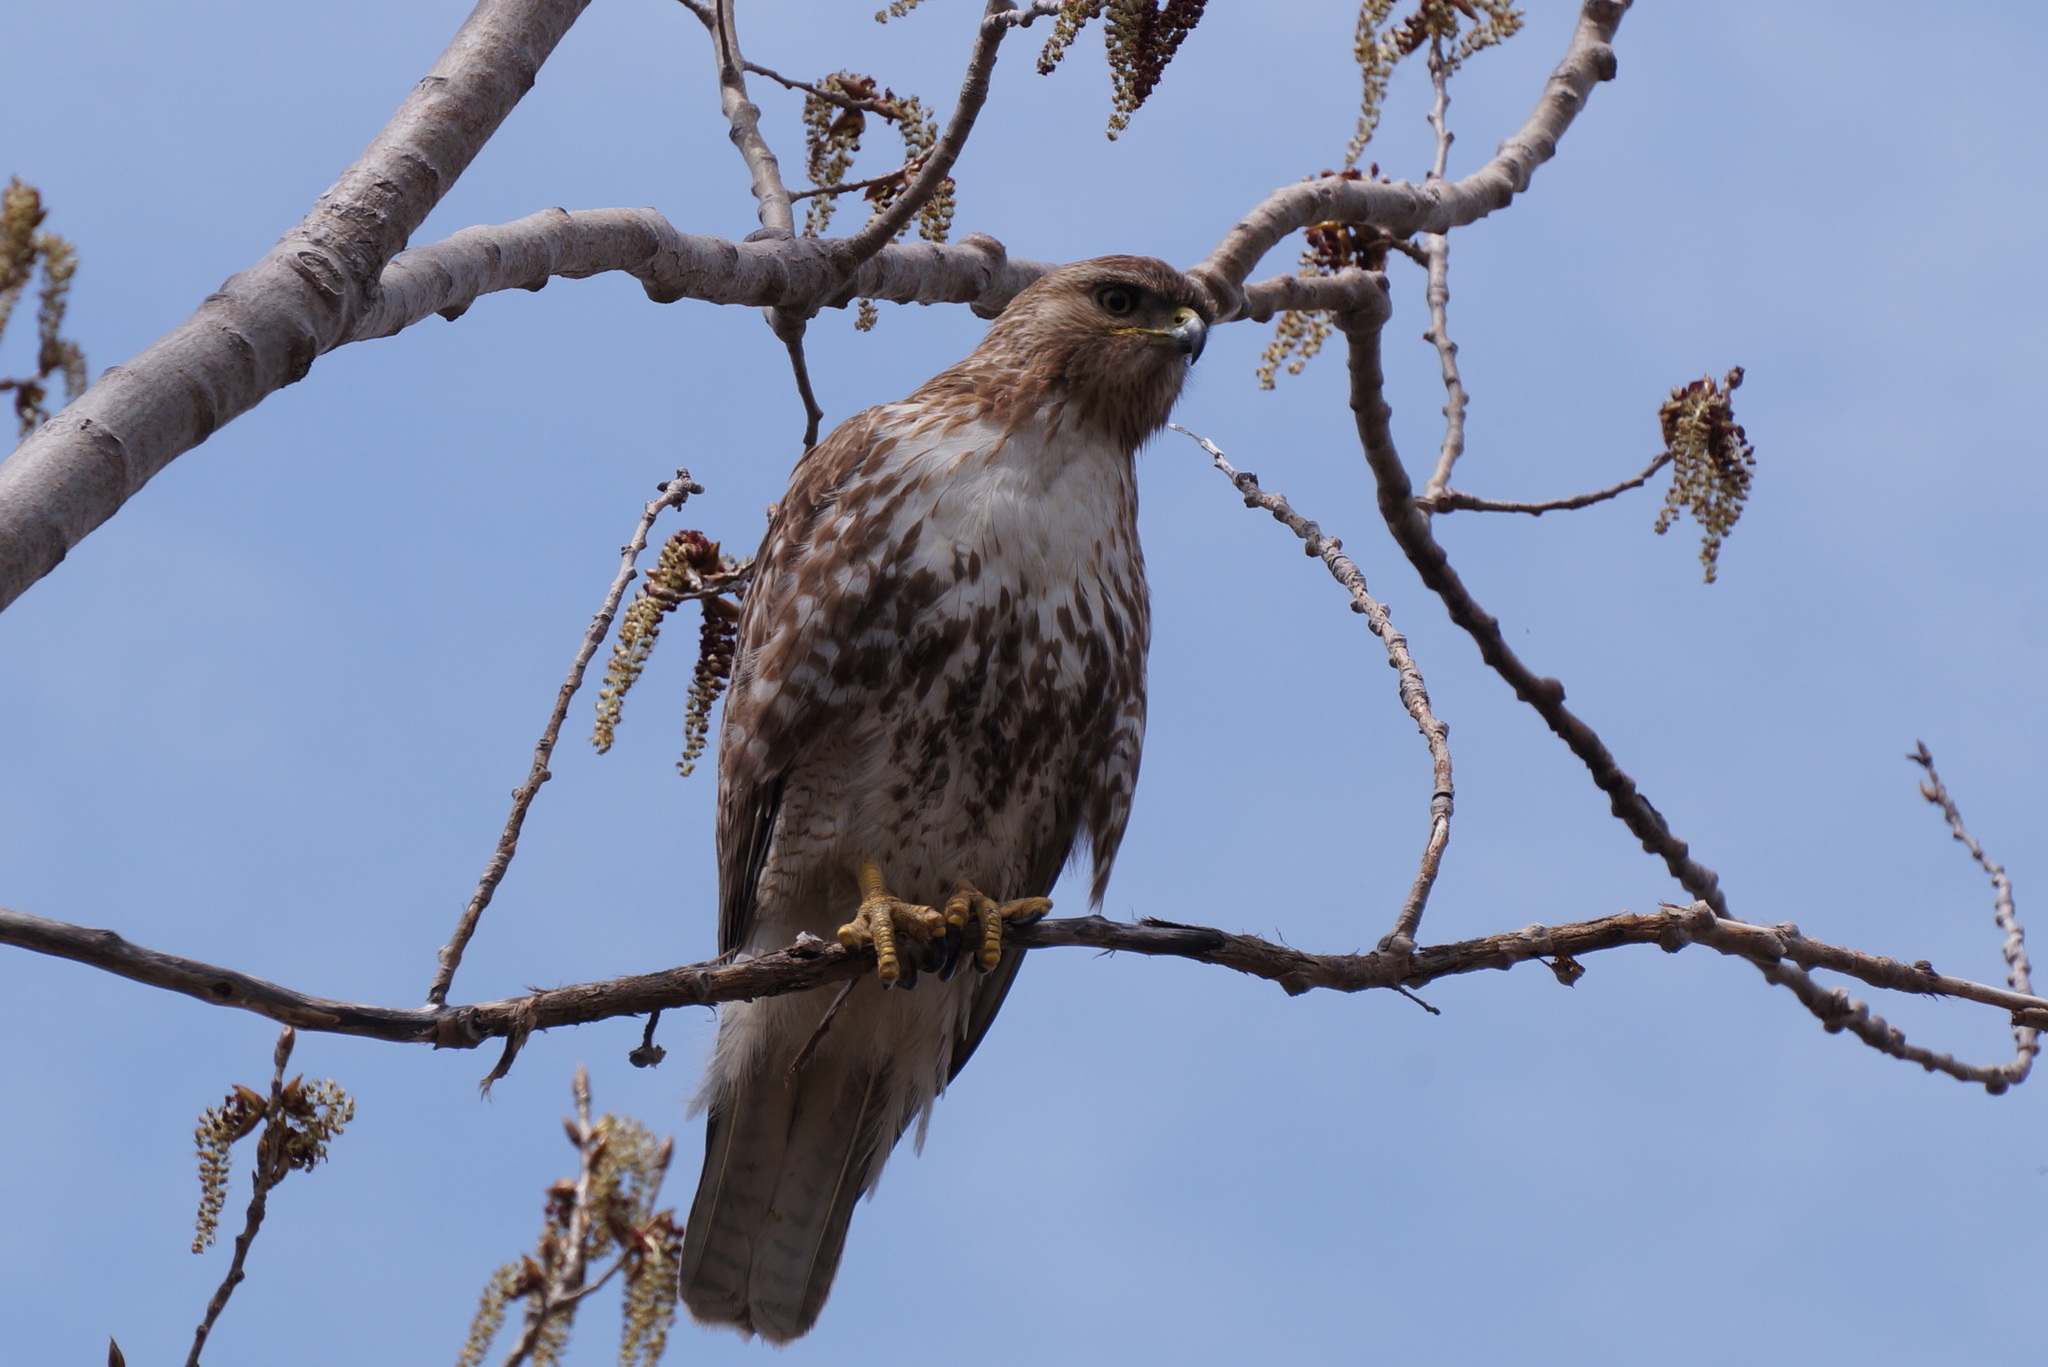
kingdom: Animalia
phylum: Chordata
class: Aves
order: Accipitriformes
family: Accipitridae
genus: Buteo
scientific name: Buteo jamaicensis
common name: Red-tailed hawk
